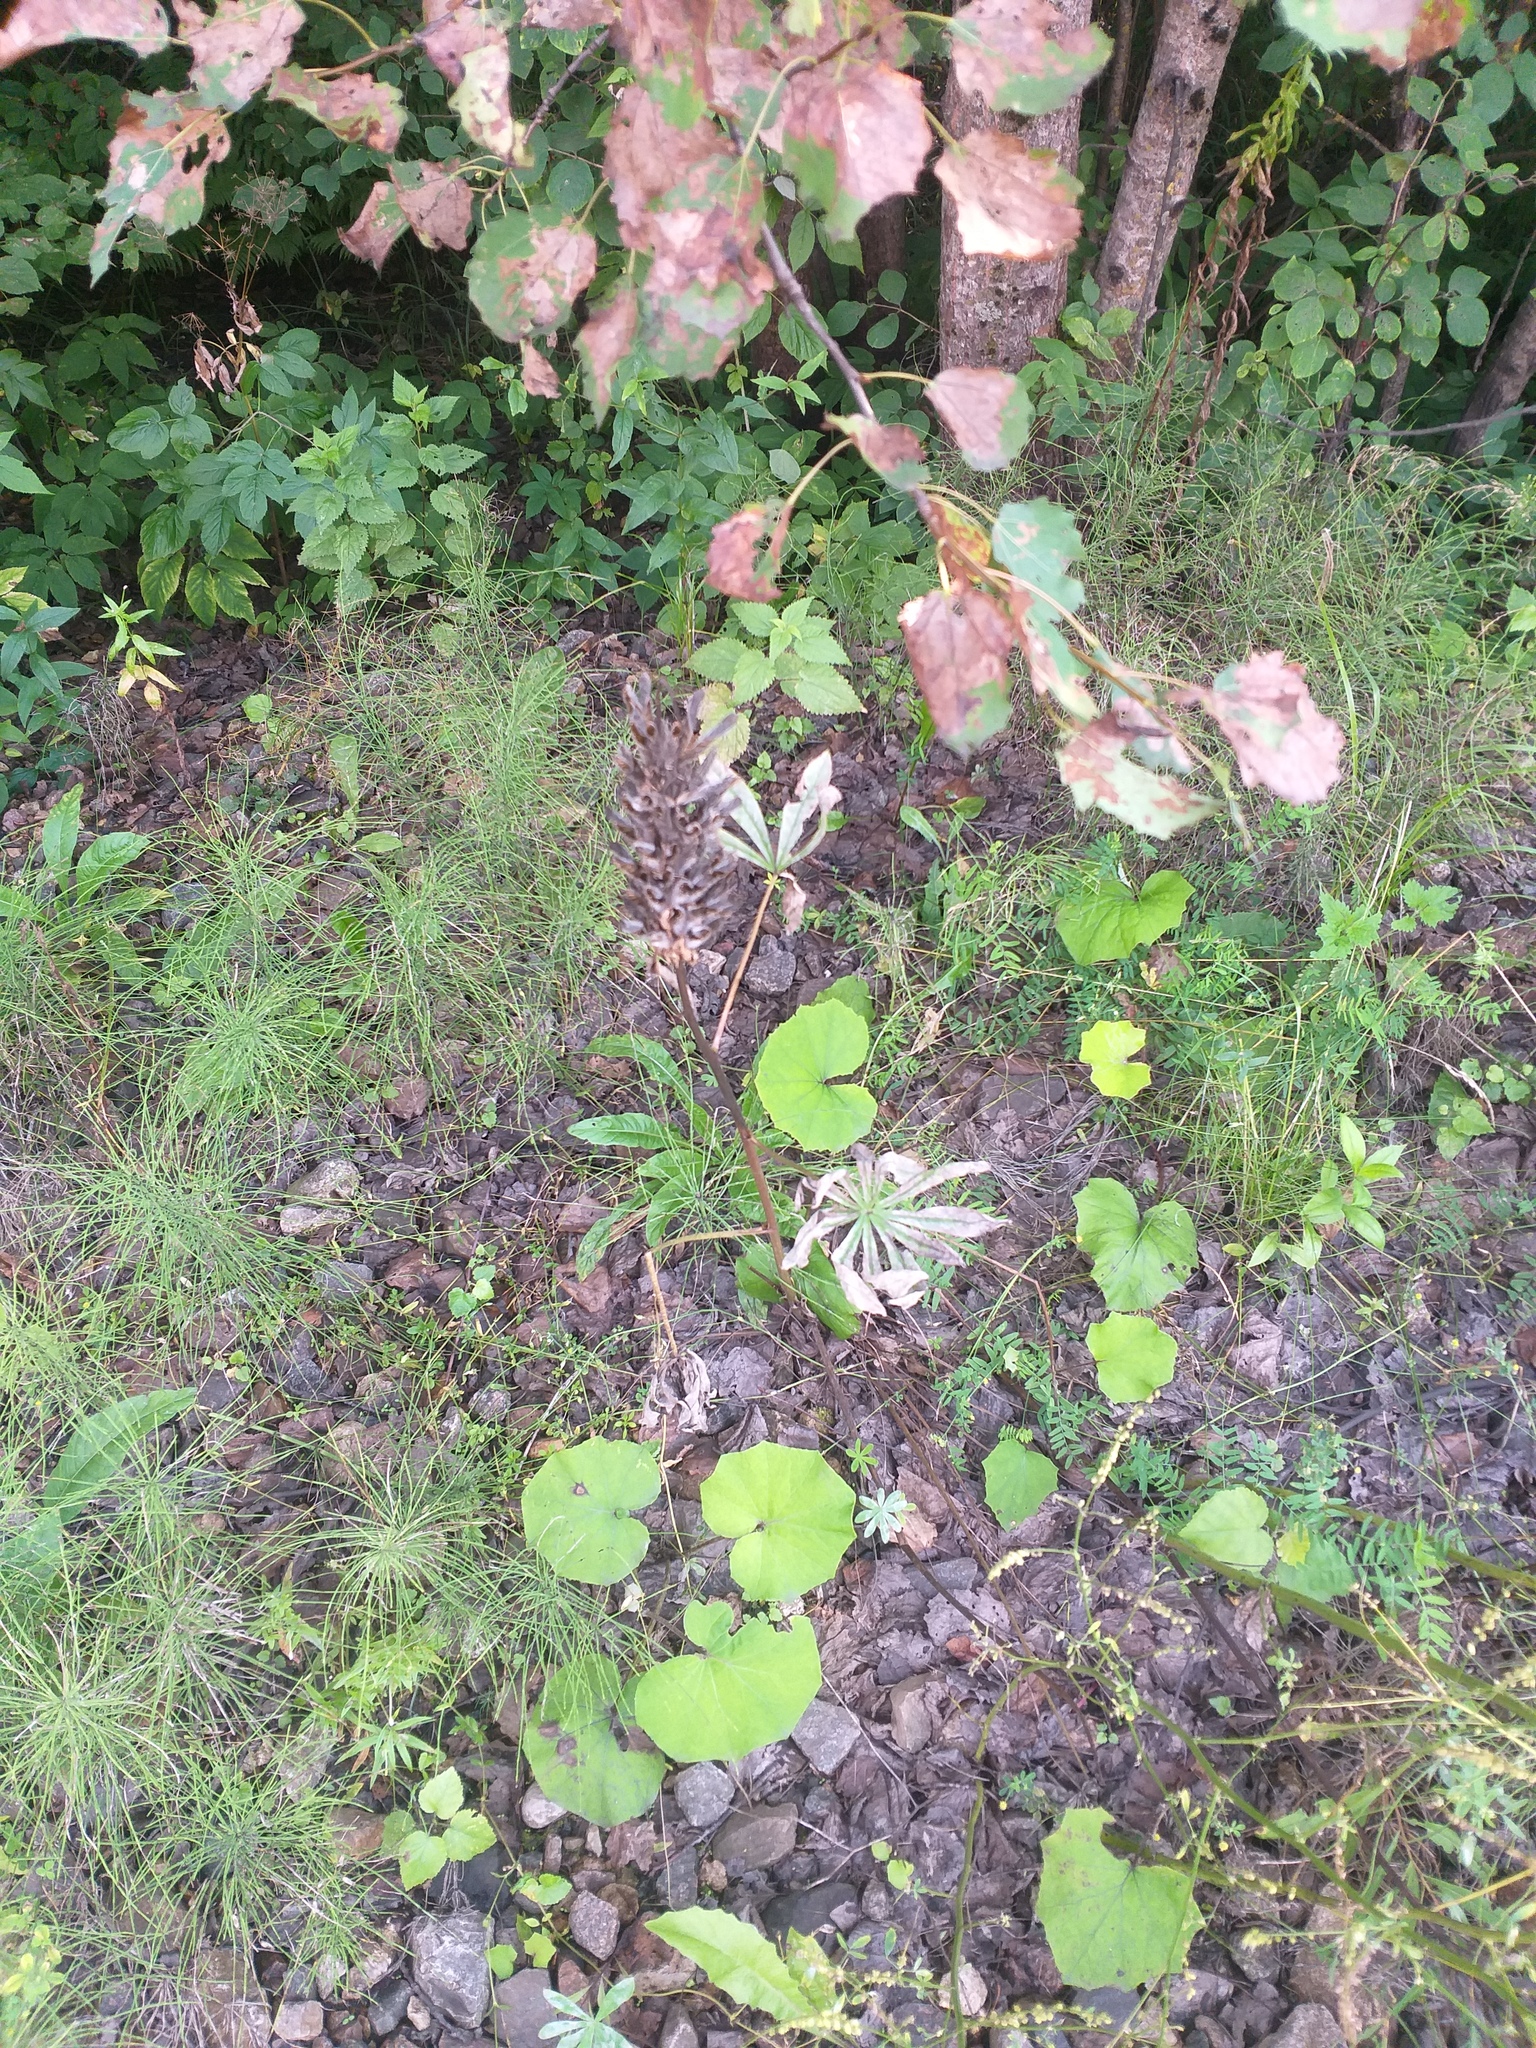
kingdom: Plantae
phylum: Tracheophyta
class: Magnoliopsida
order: Fabales
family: Fabaceae
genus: Lupinus
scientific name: Lupinus polyphyllus
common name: Garden lupin
